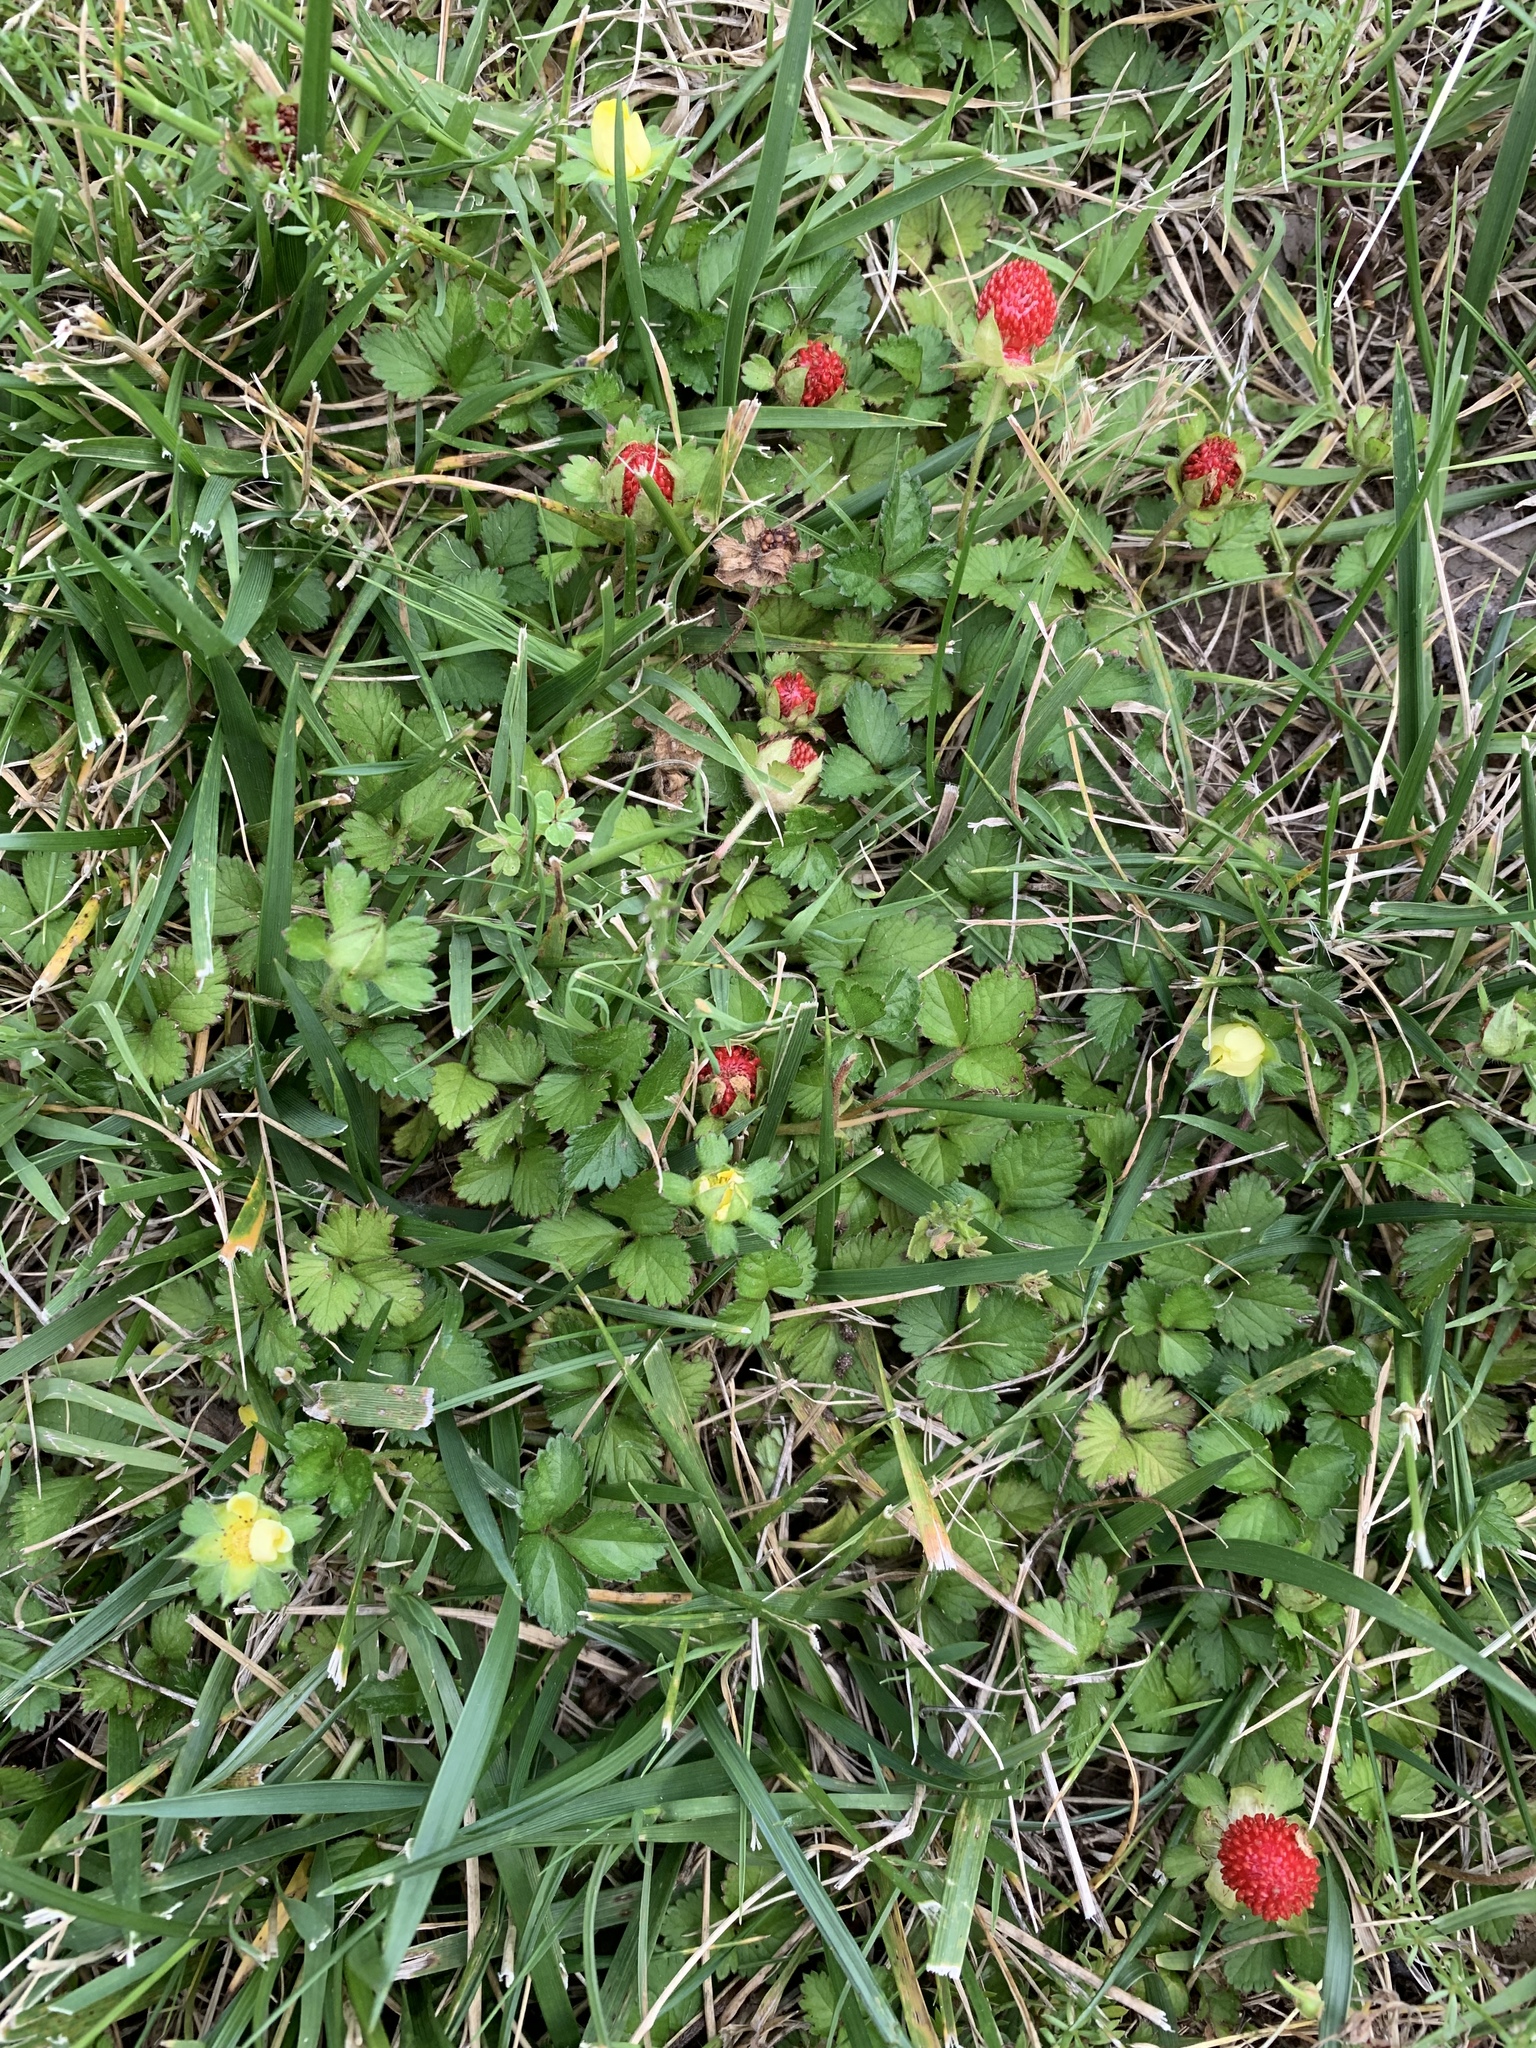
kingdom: Plantae
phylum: Tracheophyta
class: Magnoliopsida
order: Rosales
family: Rosaceae
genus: Potentilla
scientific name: Potentilla indica
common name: Yellow-flowered strawberry
